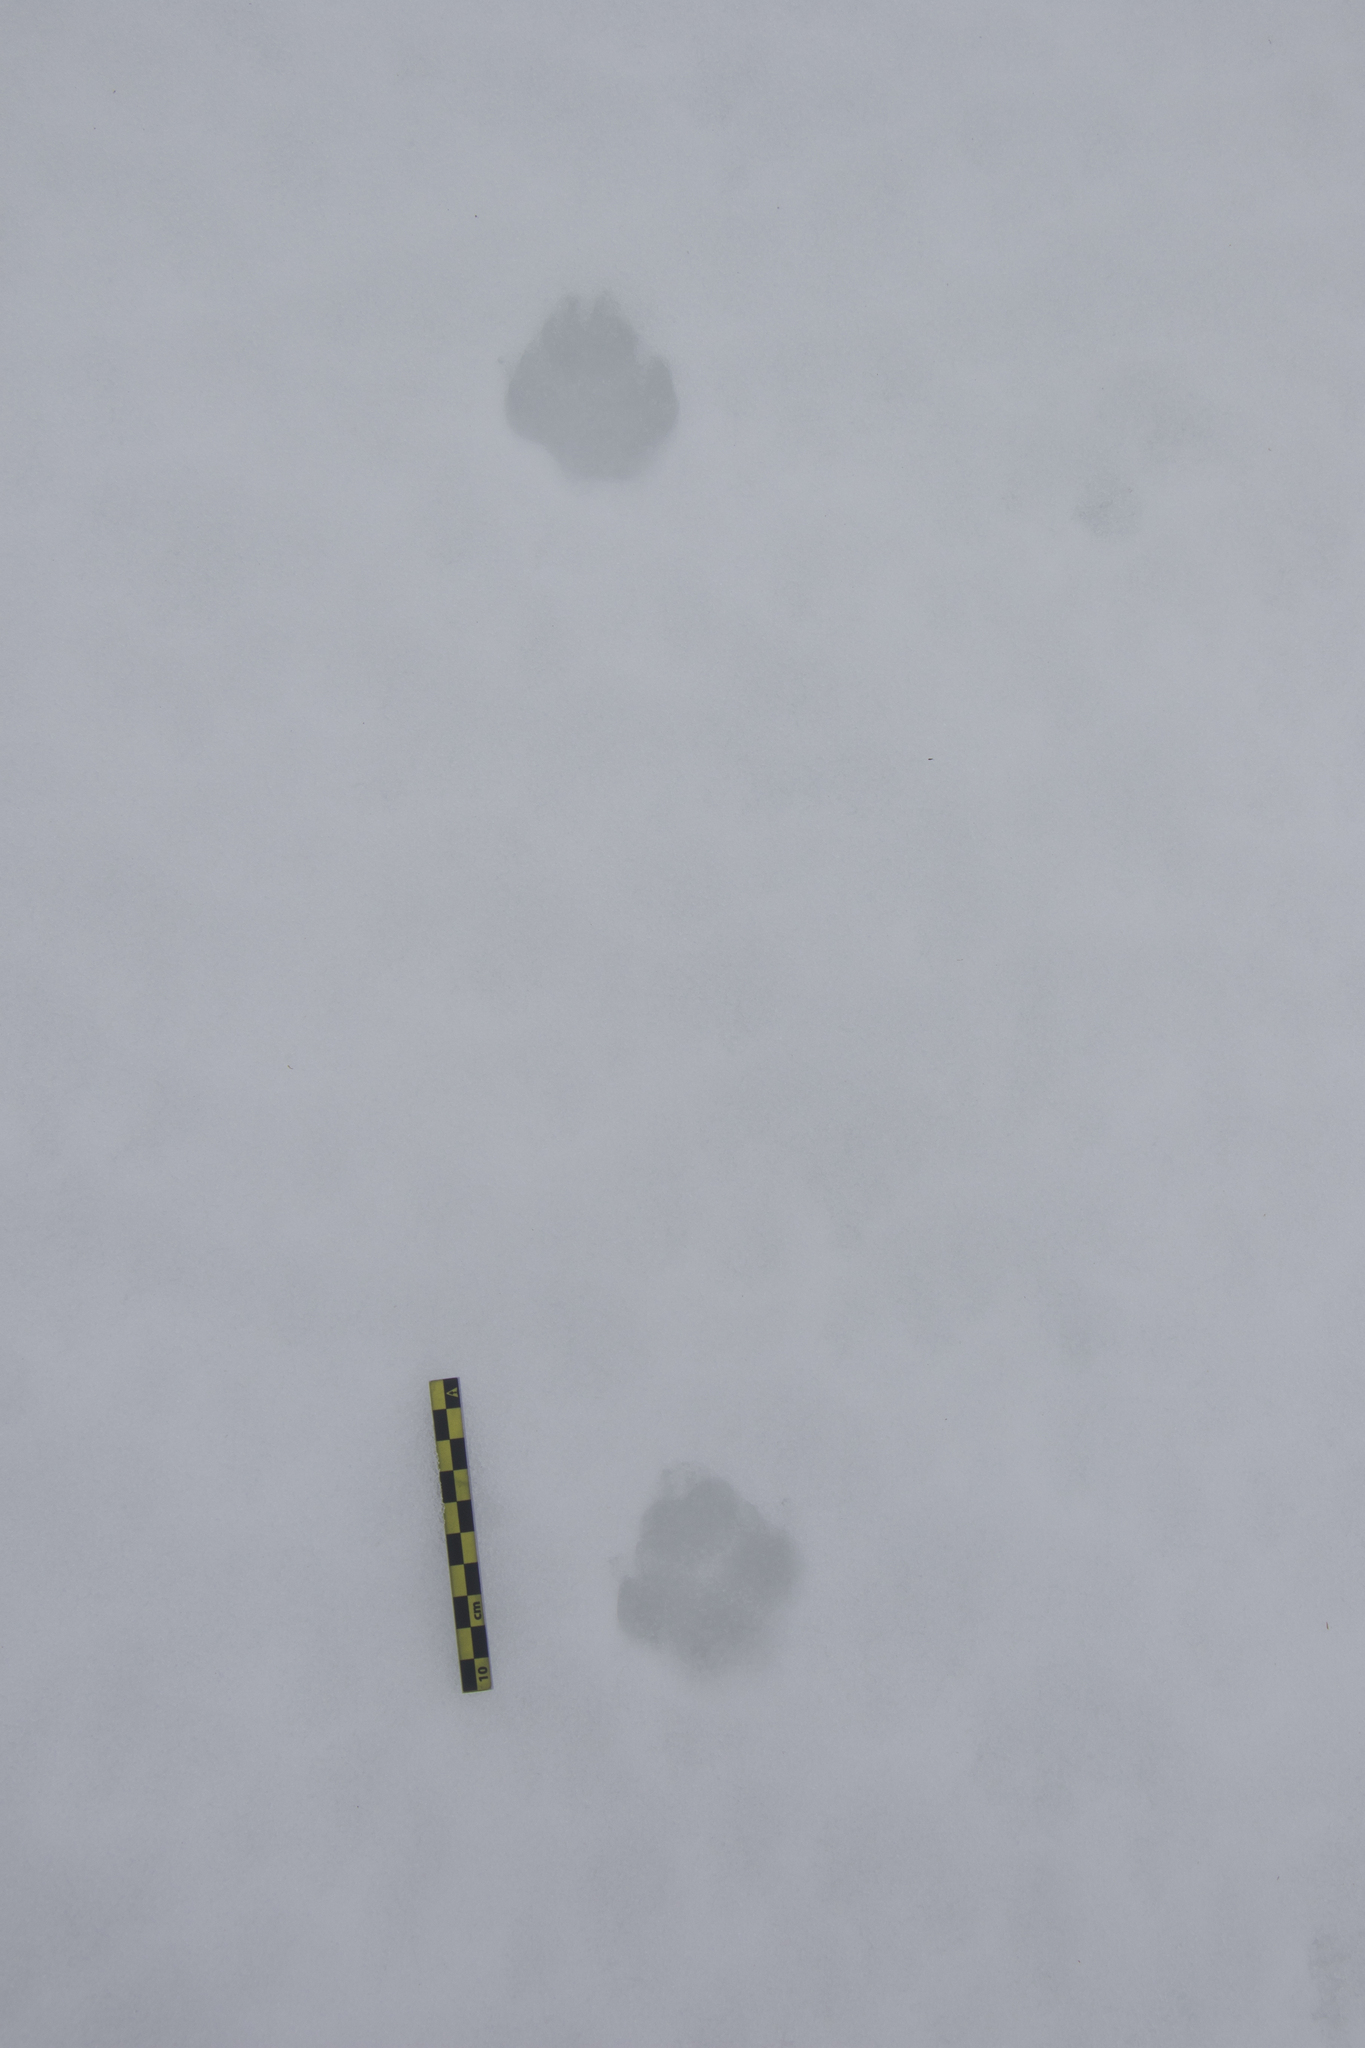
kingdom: Animalia
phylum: Chordata
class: Mammalia
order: Carnivora
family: Canidae
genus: Vulpes
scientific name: Vulpes vulpes
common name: Red fox
